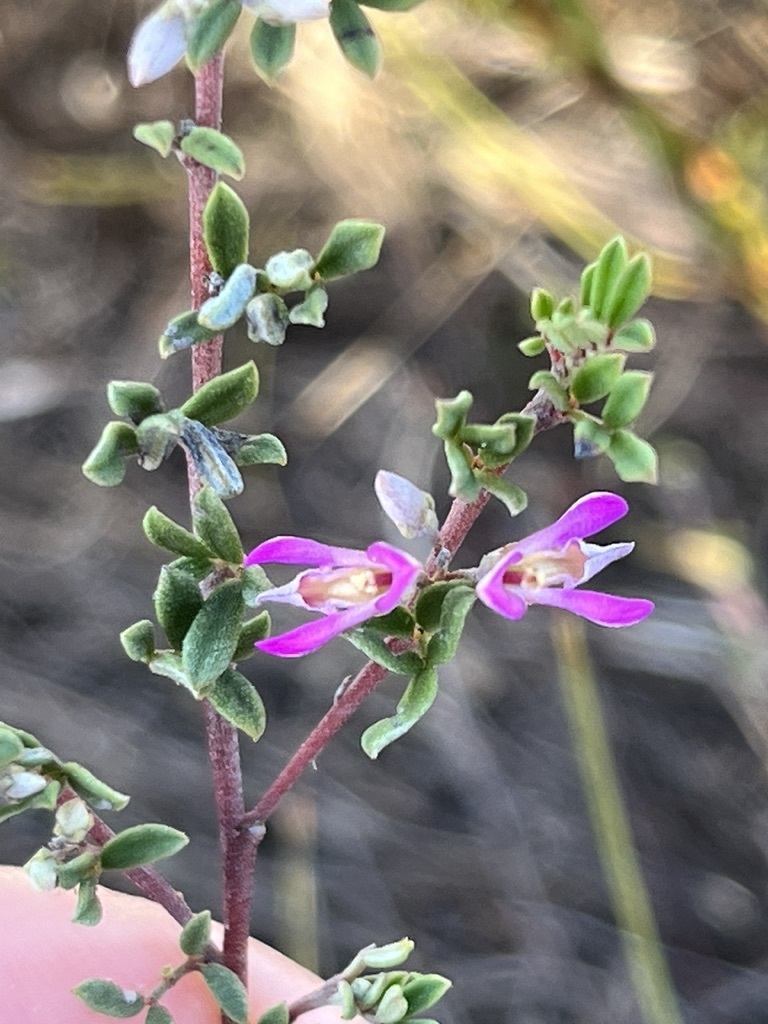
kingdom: Plantae
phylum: Tracheophyta
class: Magnoliopsida
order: Fabales
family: Fabaceae
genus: Indigofera
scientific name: Indigofera
